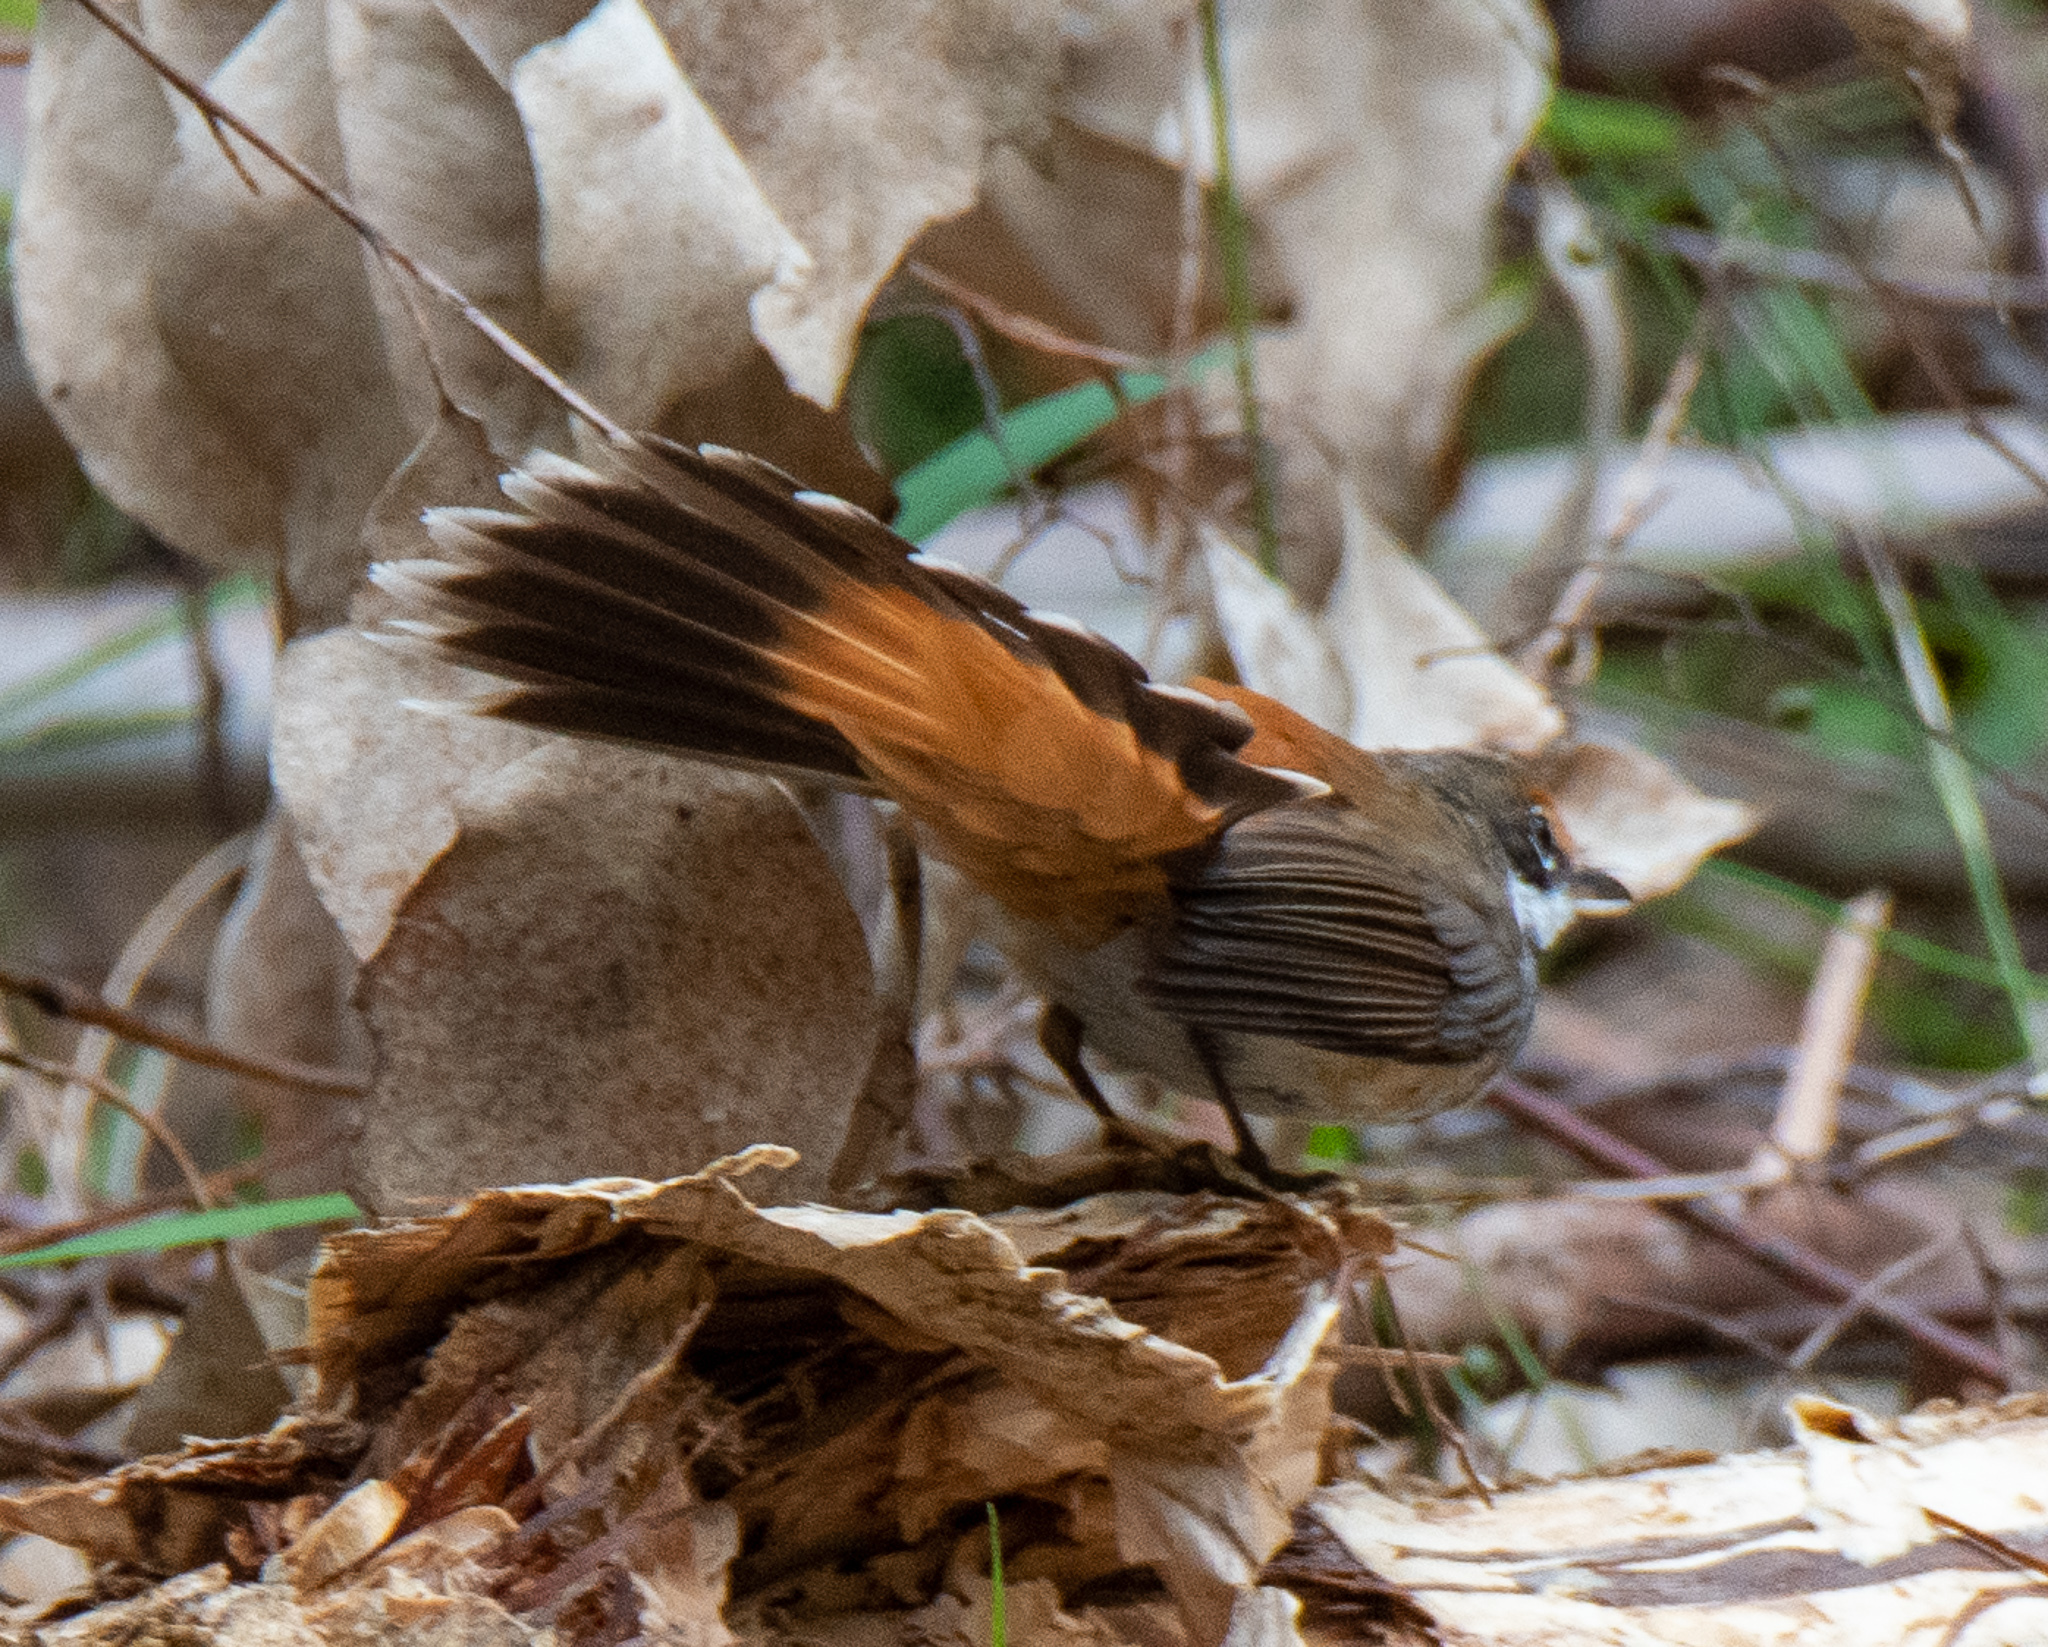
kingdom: Animalia
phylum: Chordata
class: Aves
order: Passeriformes
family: Rhipiduridae
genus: Rhipidura
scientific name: Rhipidura rufifrons
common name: Rufous fantail
